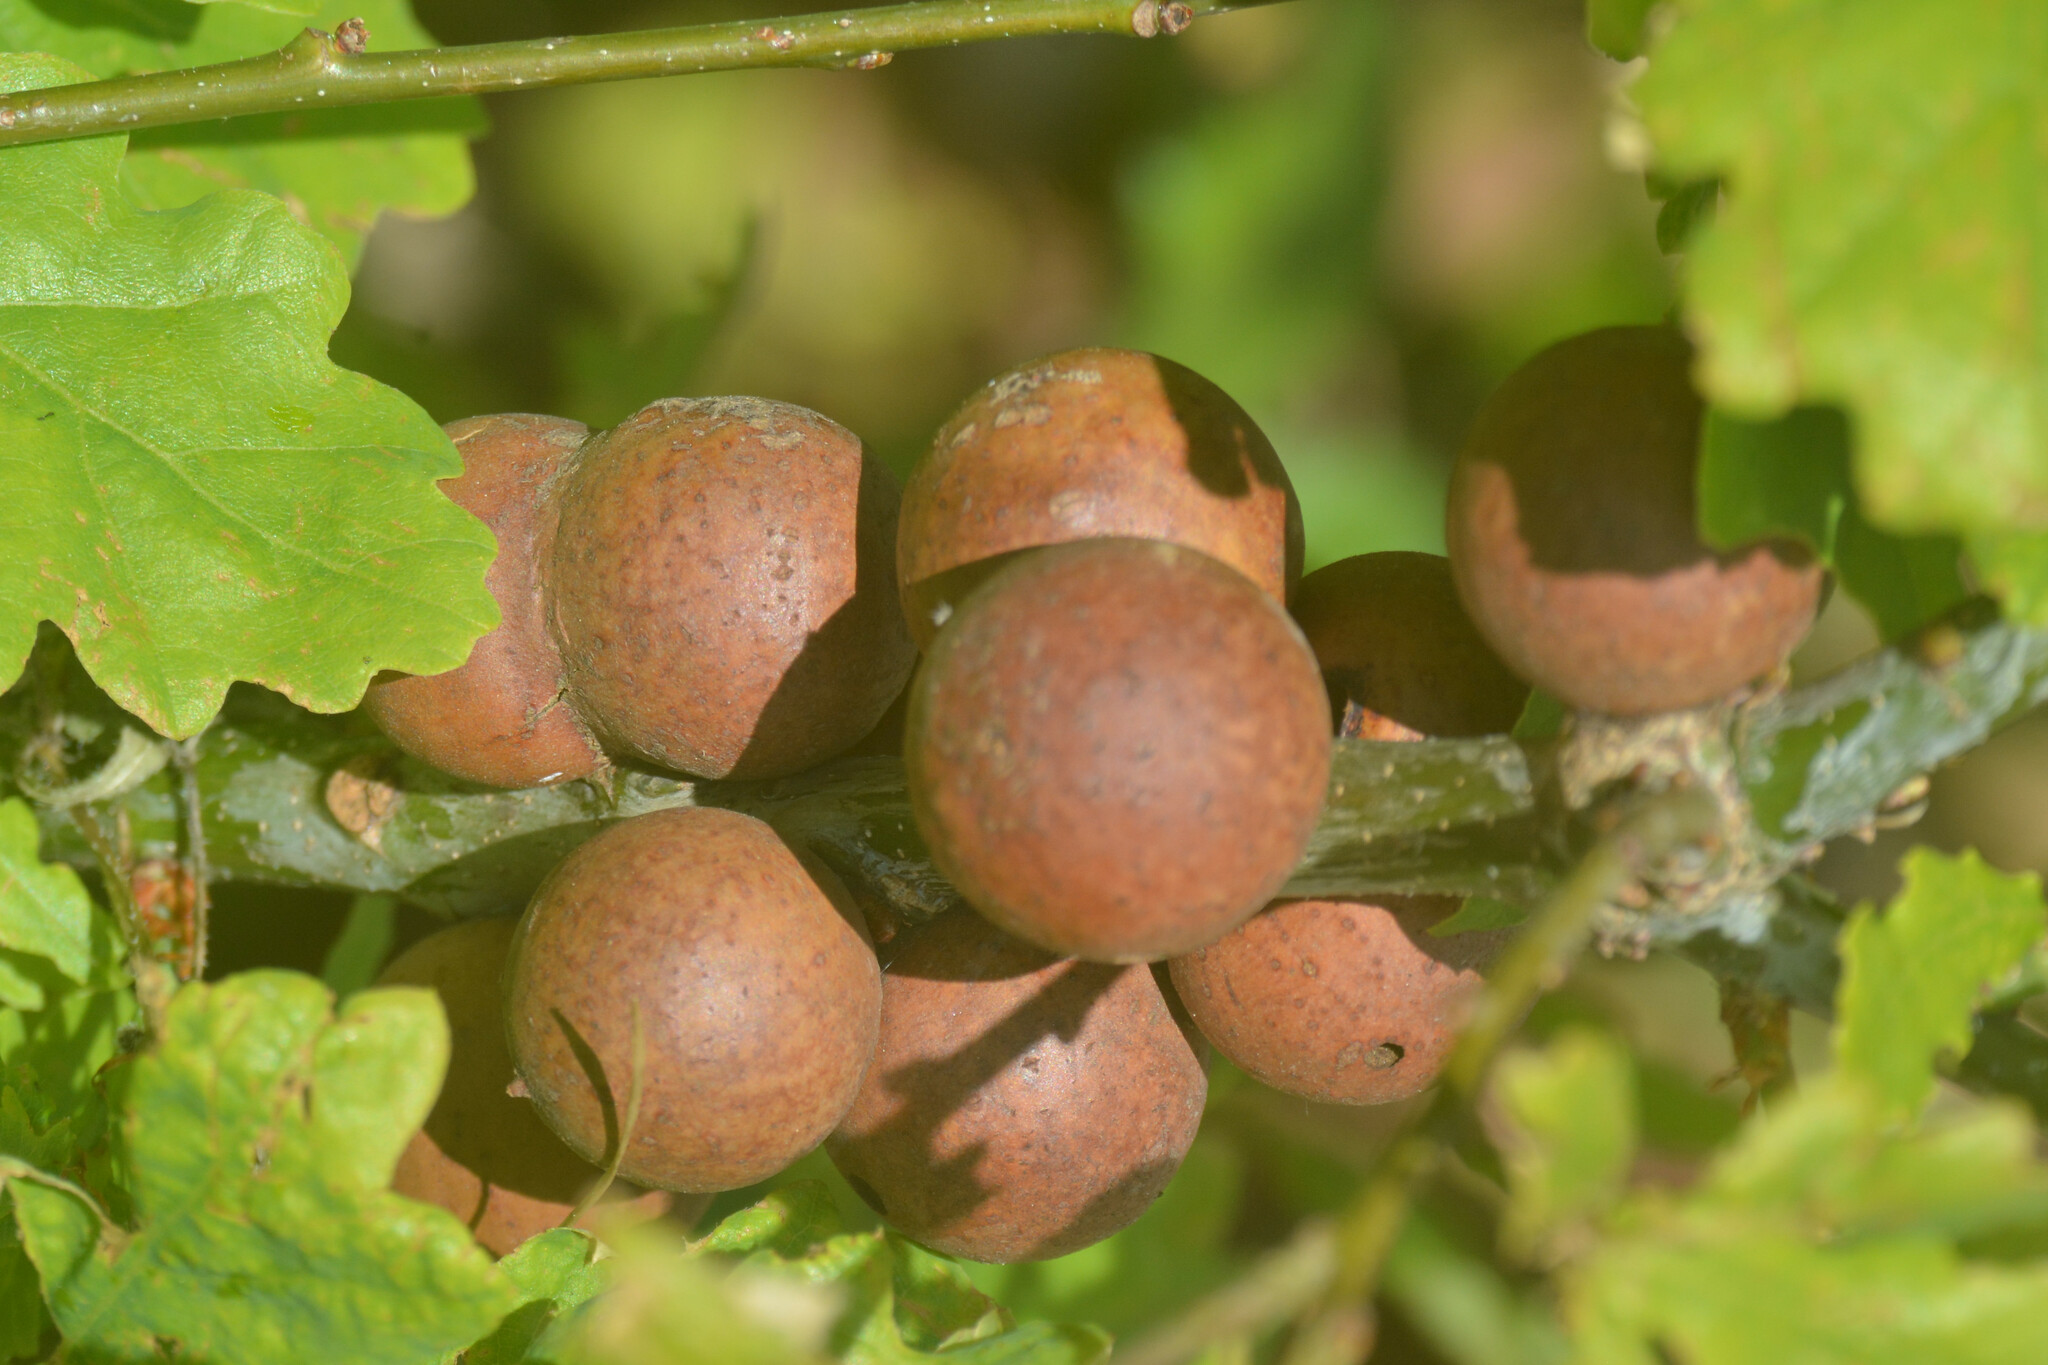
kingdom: Animalia
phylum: Arthropoda
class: Insecta
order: Hymenoptera
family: Cynipidae
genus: Andricus
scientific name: Andricus kollari
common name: Marble gall
